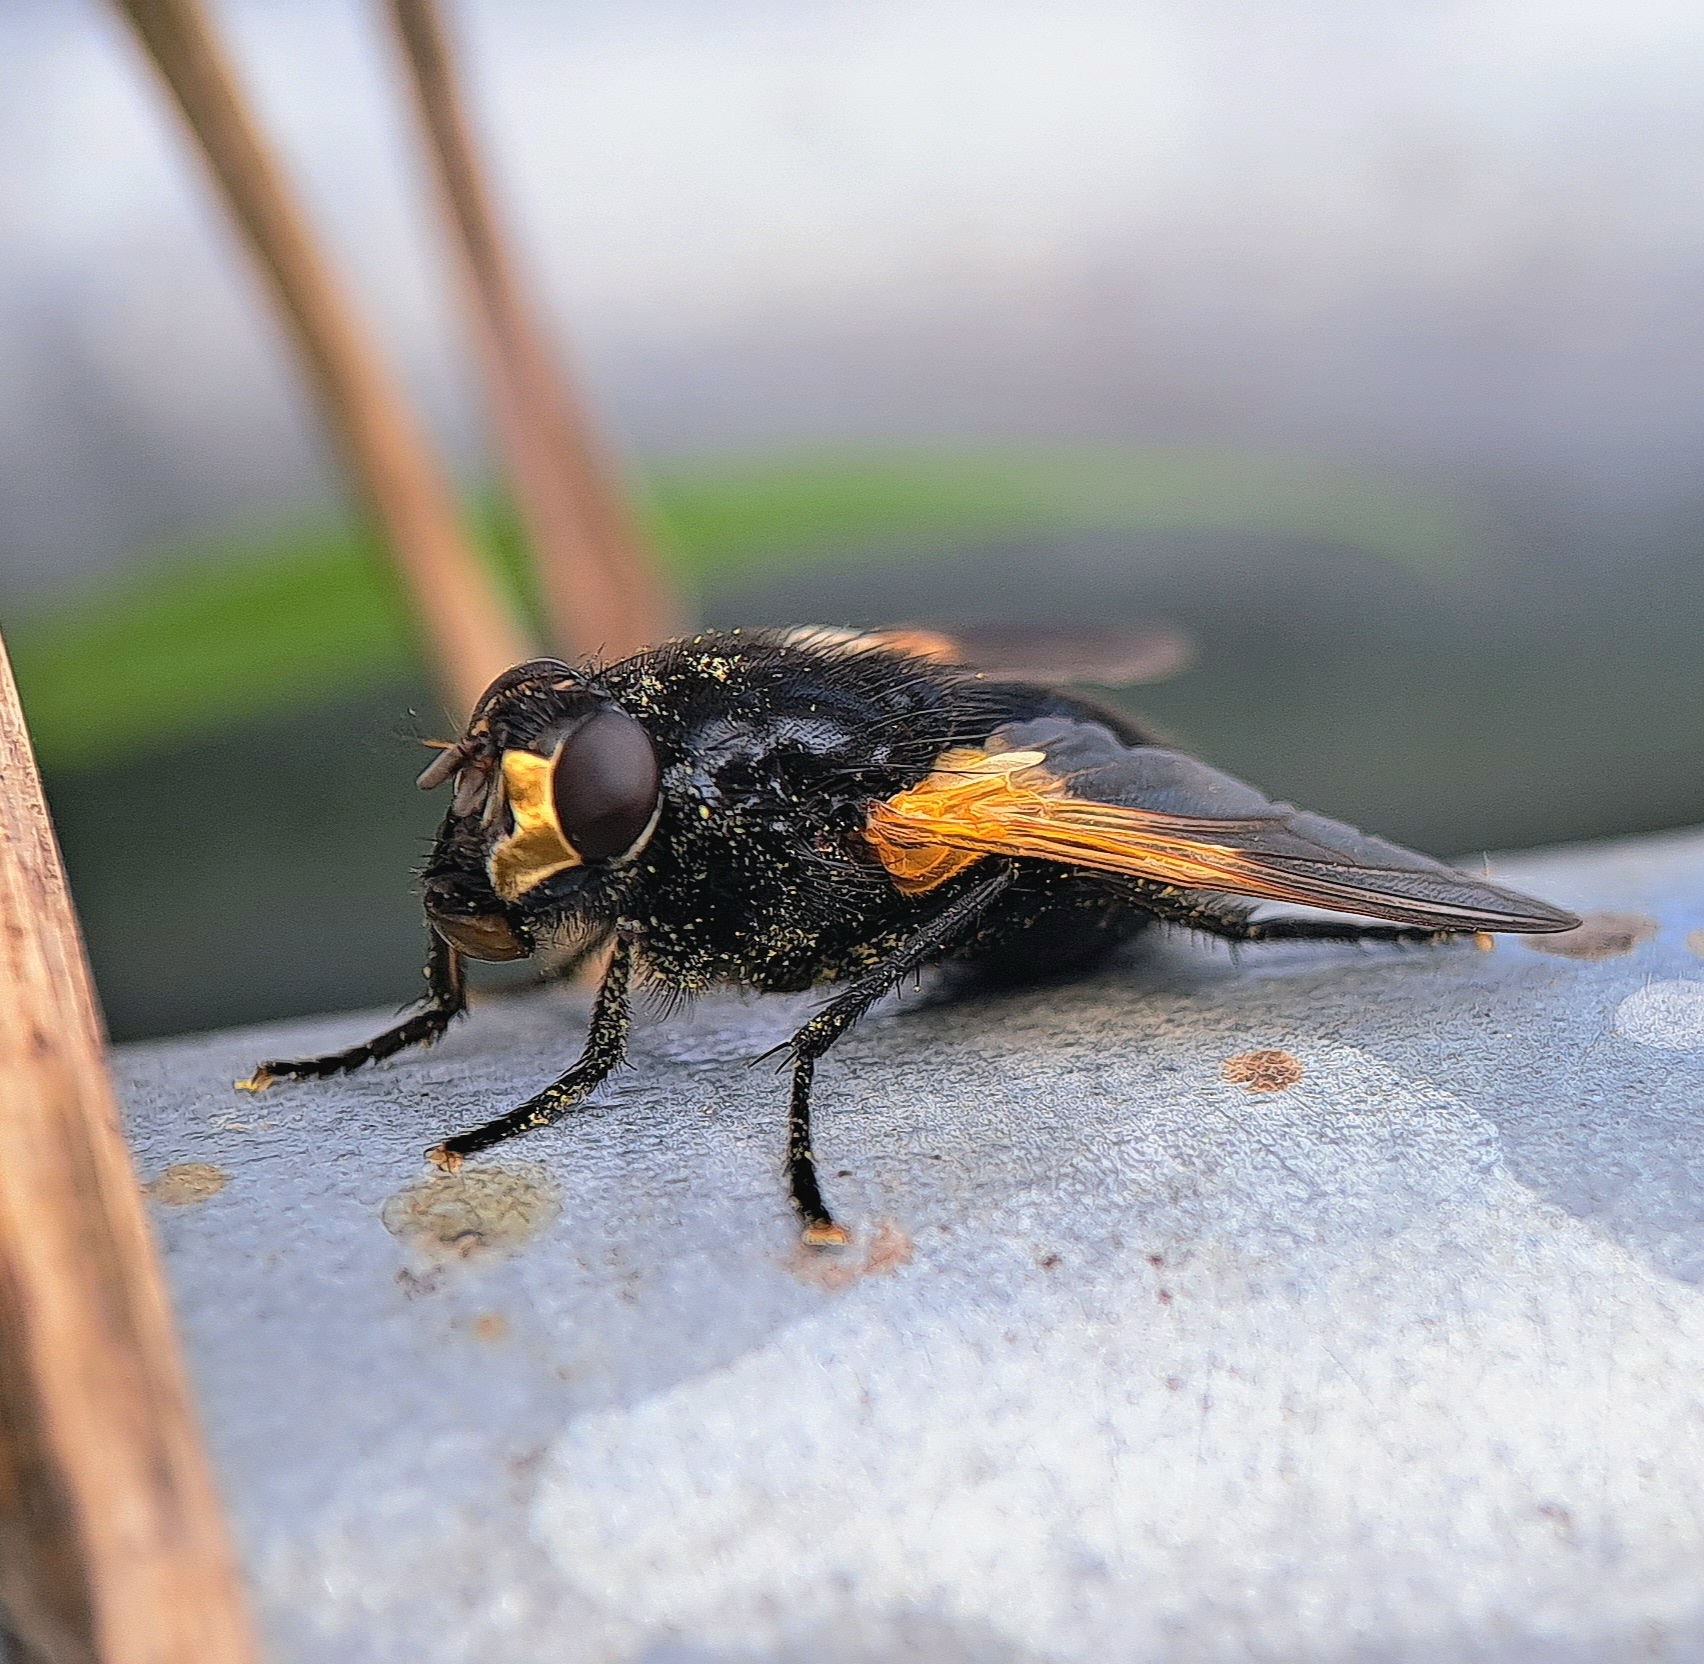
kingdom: Animalia
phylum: Arthropoda
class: Insecta
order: Diptera
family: Muscidae
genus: Mesembrina
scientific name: Mesembrina meridiana
